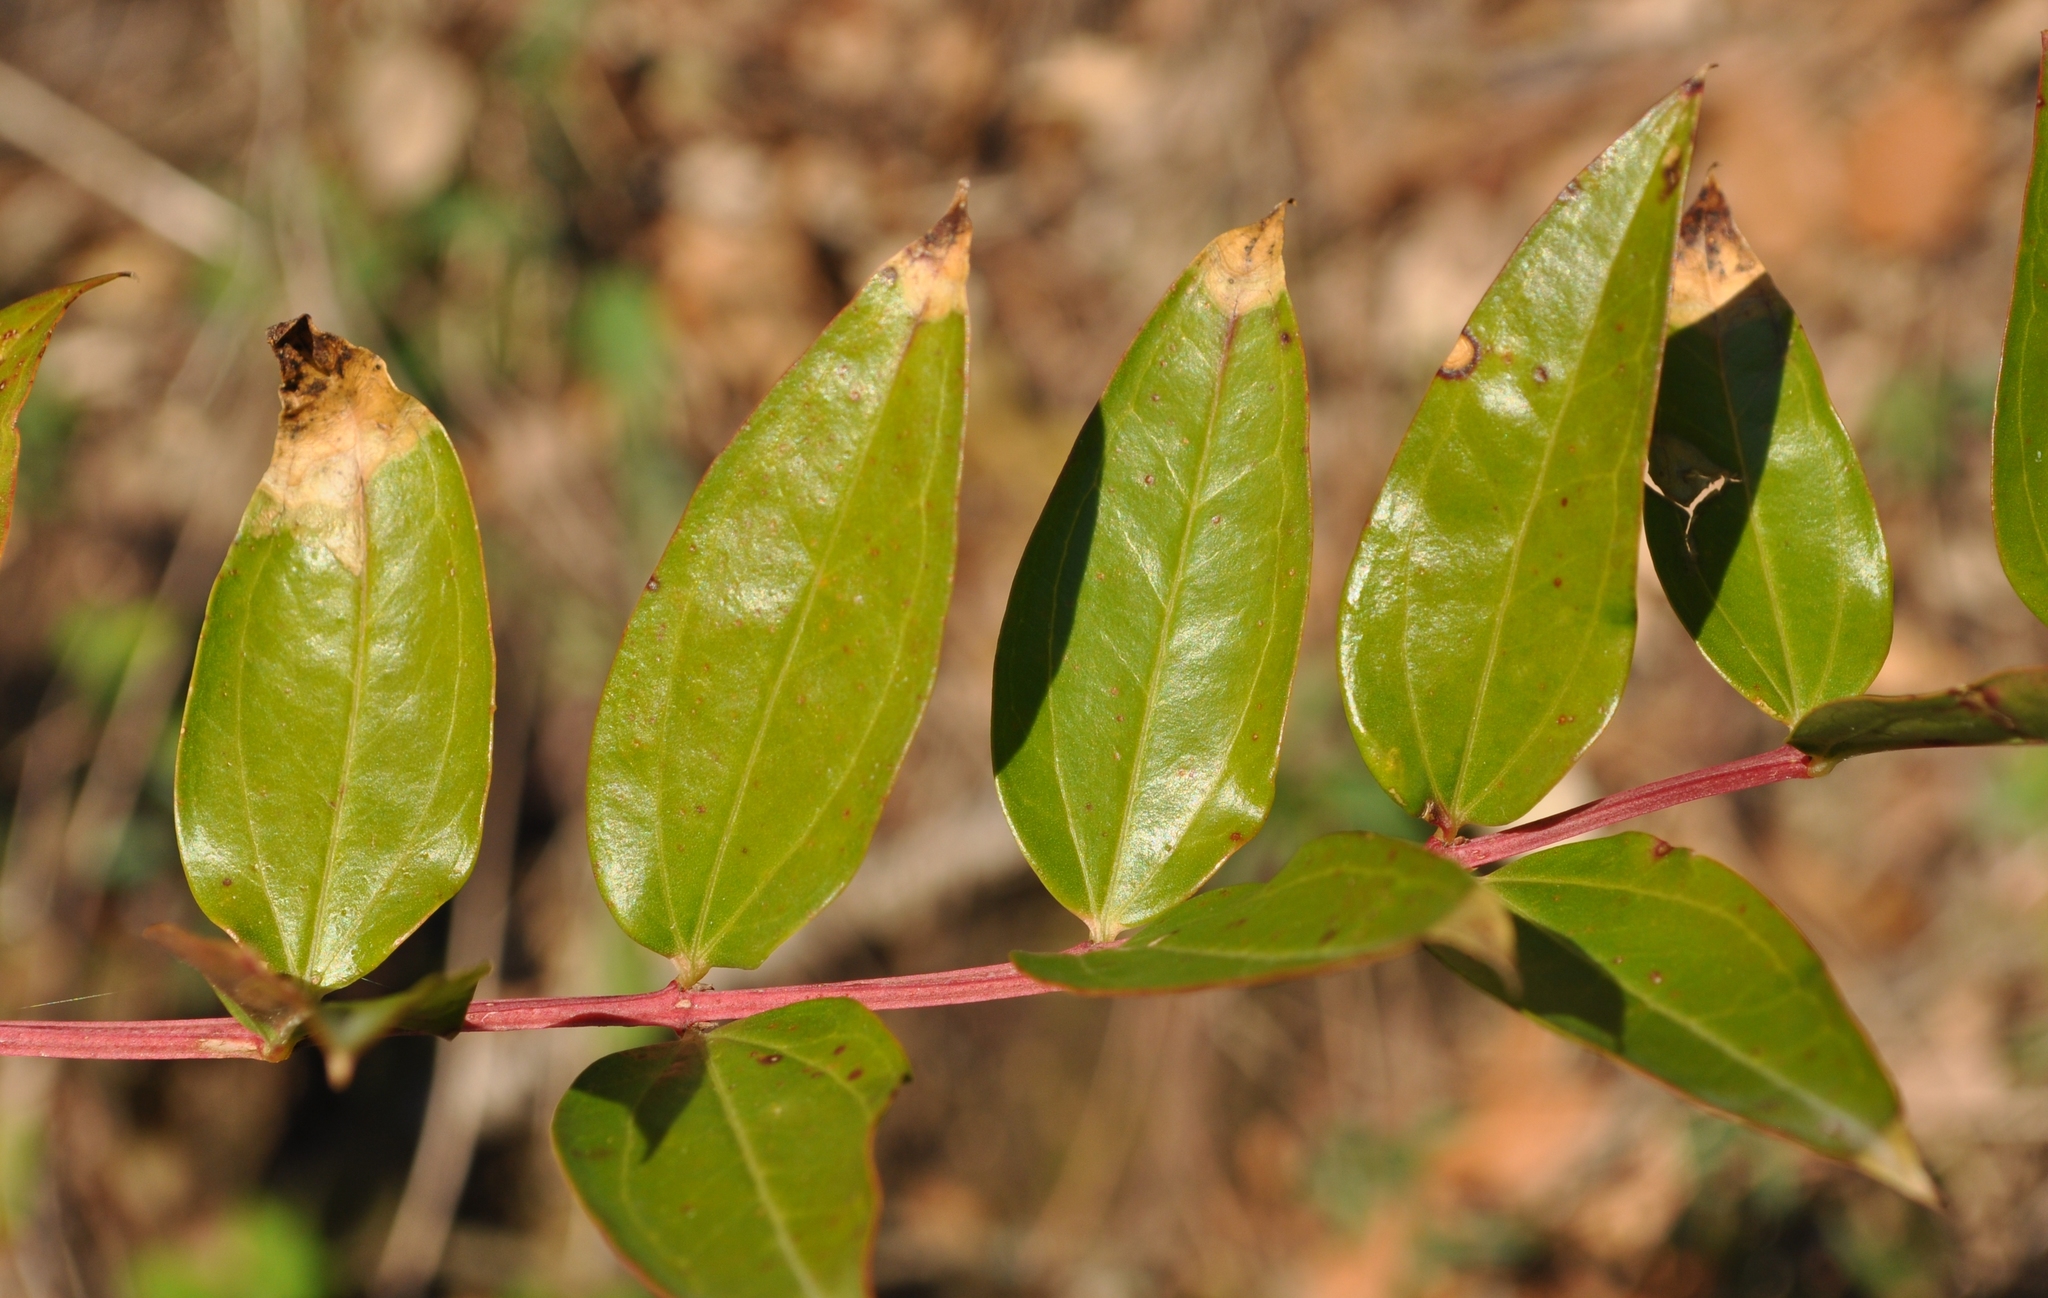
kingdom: Plantae
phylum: Tracheophyta
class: Magnoliopsida
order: Cucurbitales
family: Coriariaceae
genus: Coriaria
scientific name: Coriaria myrtifolia
